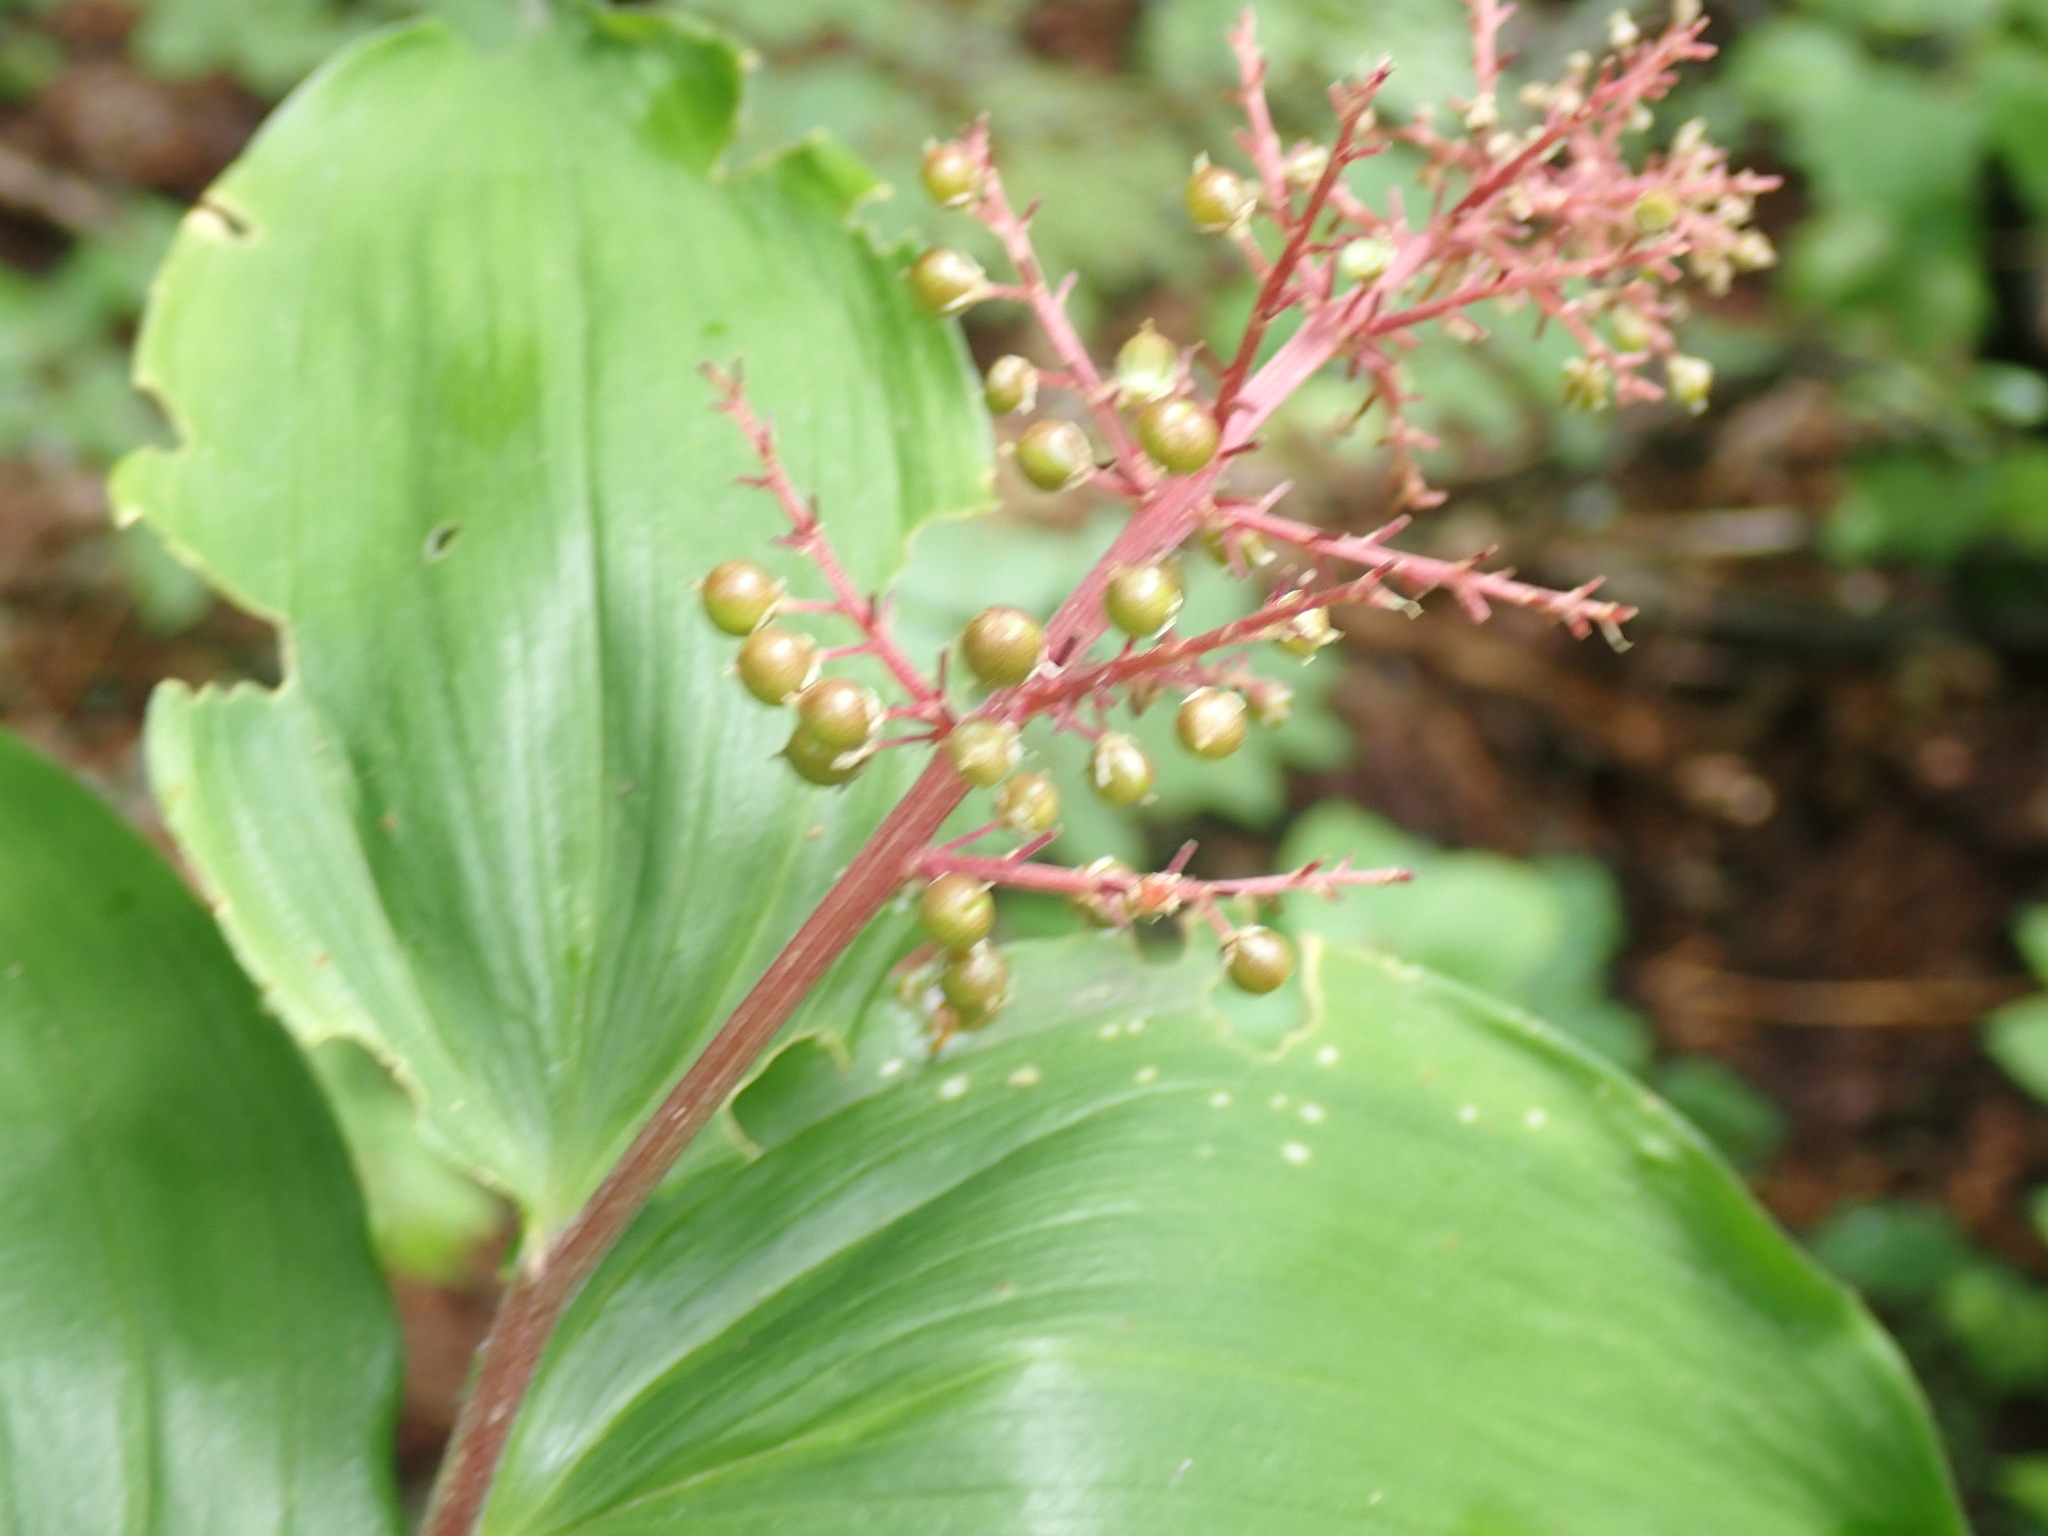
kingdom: Plantae
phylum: Tracheophyta
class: Liliopsida
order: Asparagales
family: Asparagaceae
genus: Maianthemum
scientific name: Maianthemum racemosum
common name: False spikenard
